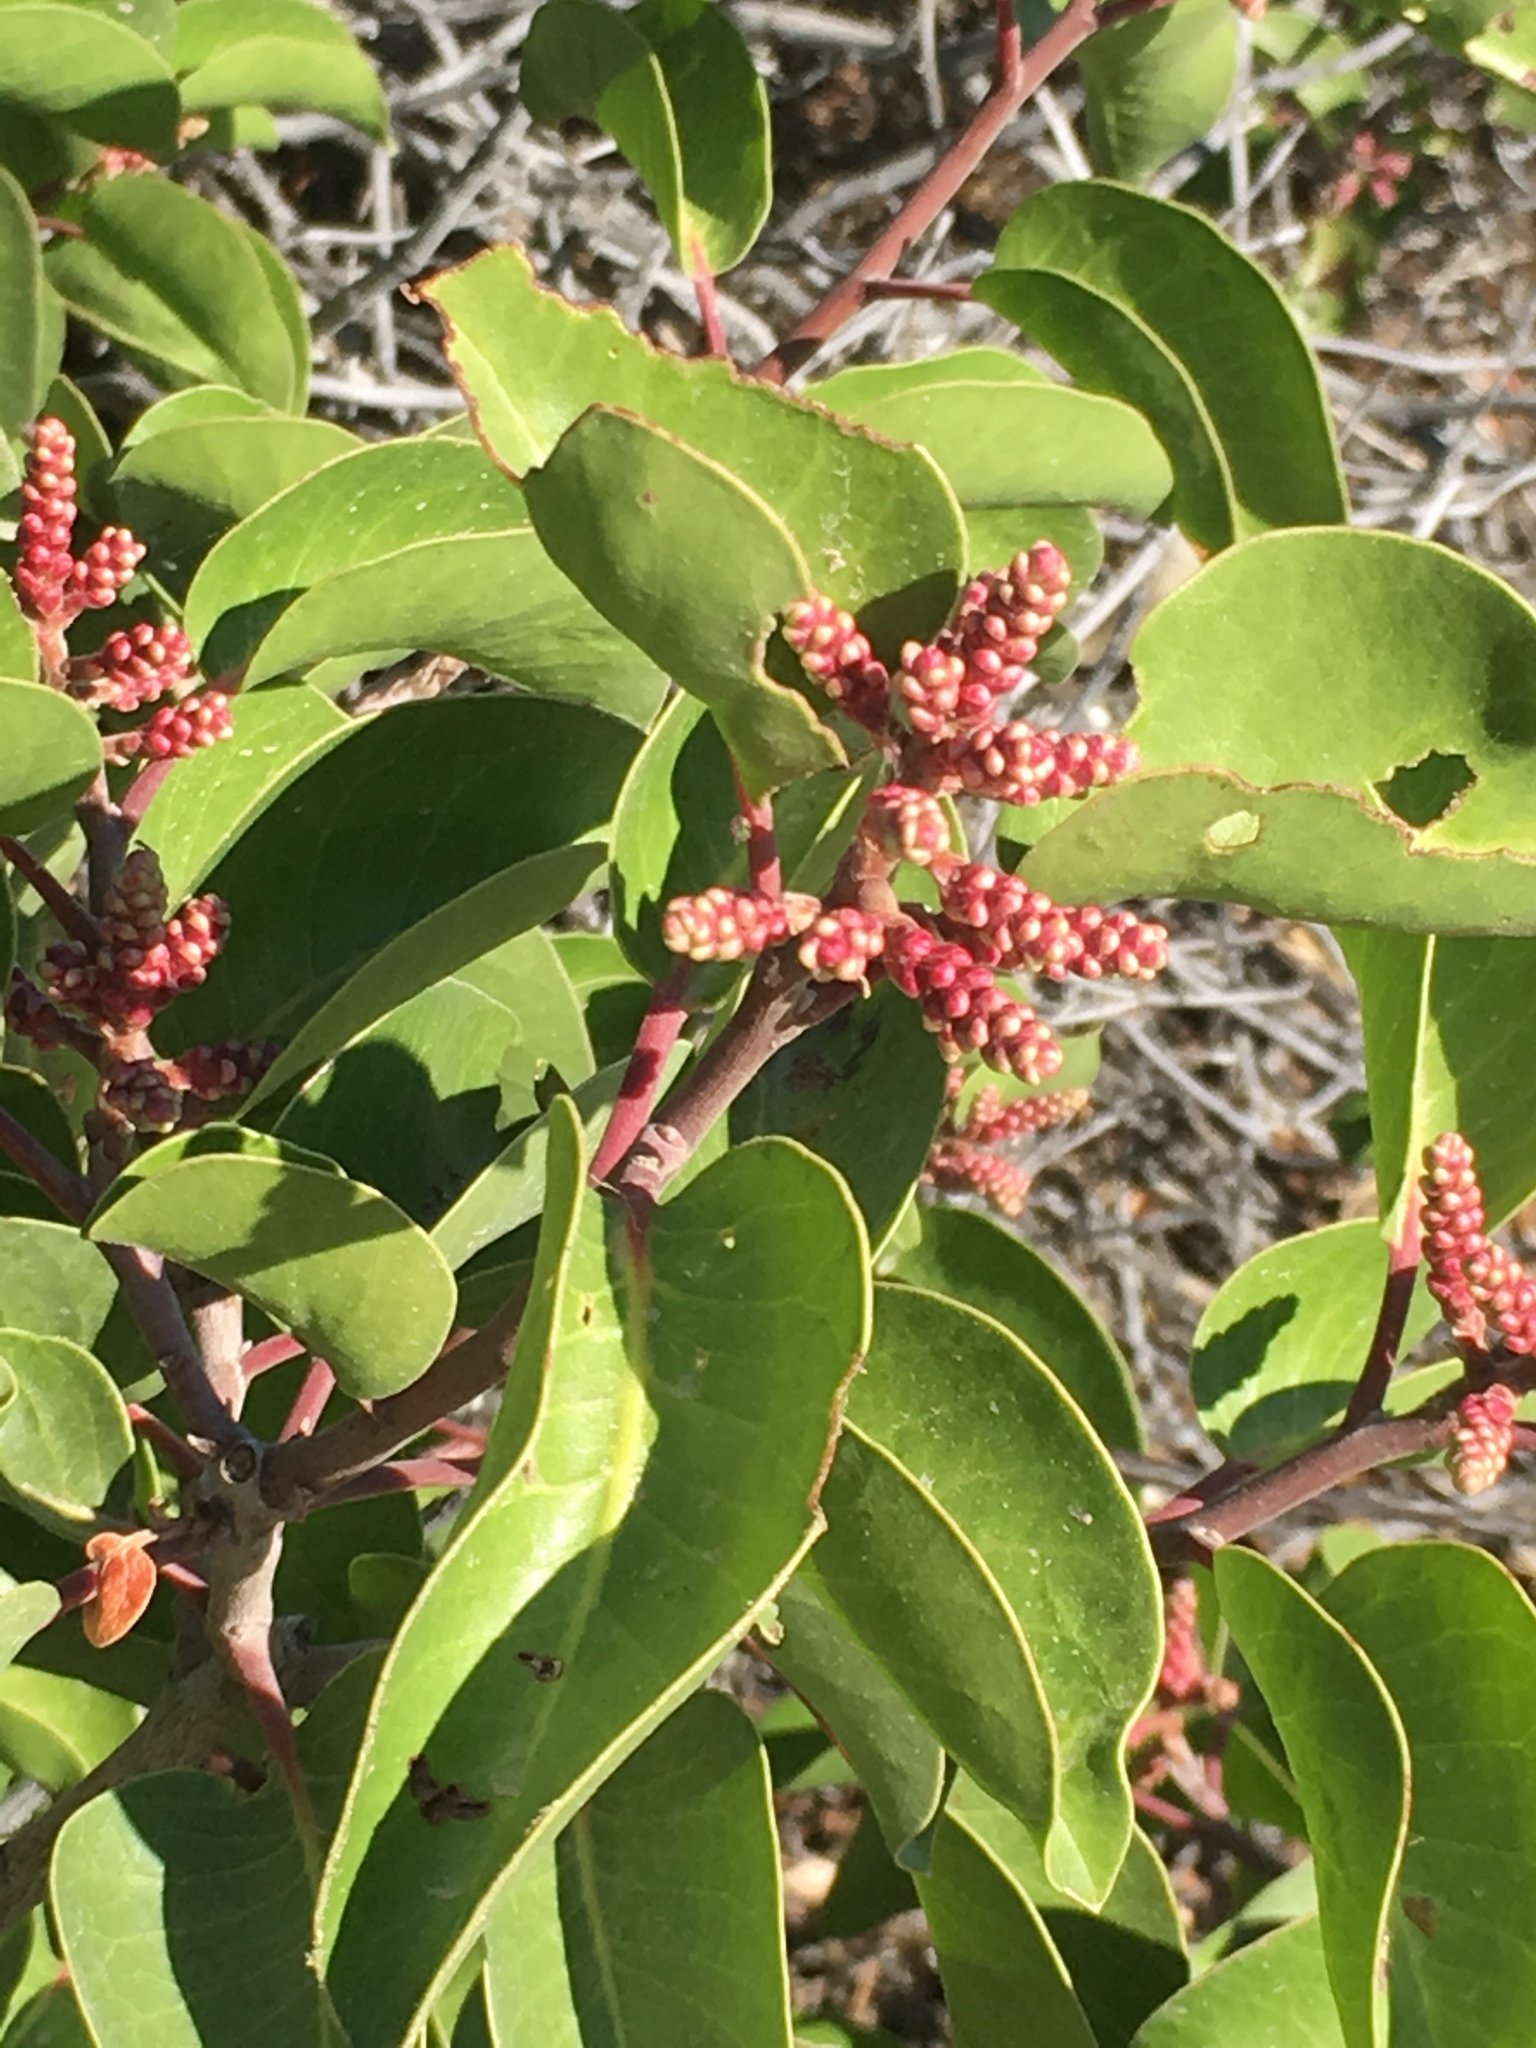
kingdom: Plantae
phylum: Tracheophyta
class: Magnoliopsida
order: Sapindales
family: Anacardiaceae
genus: Rhus
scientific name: Rhus ovata
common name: Sugar sumac
